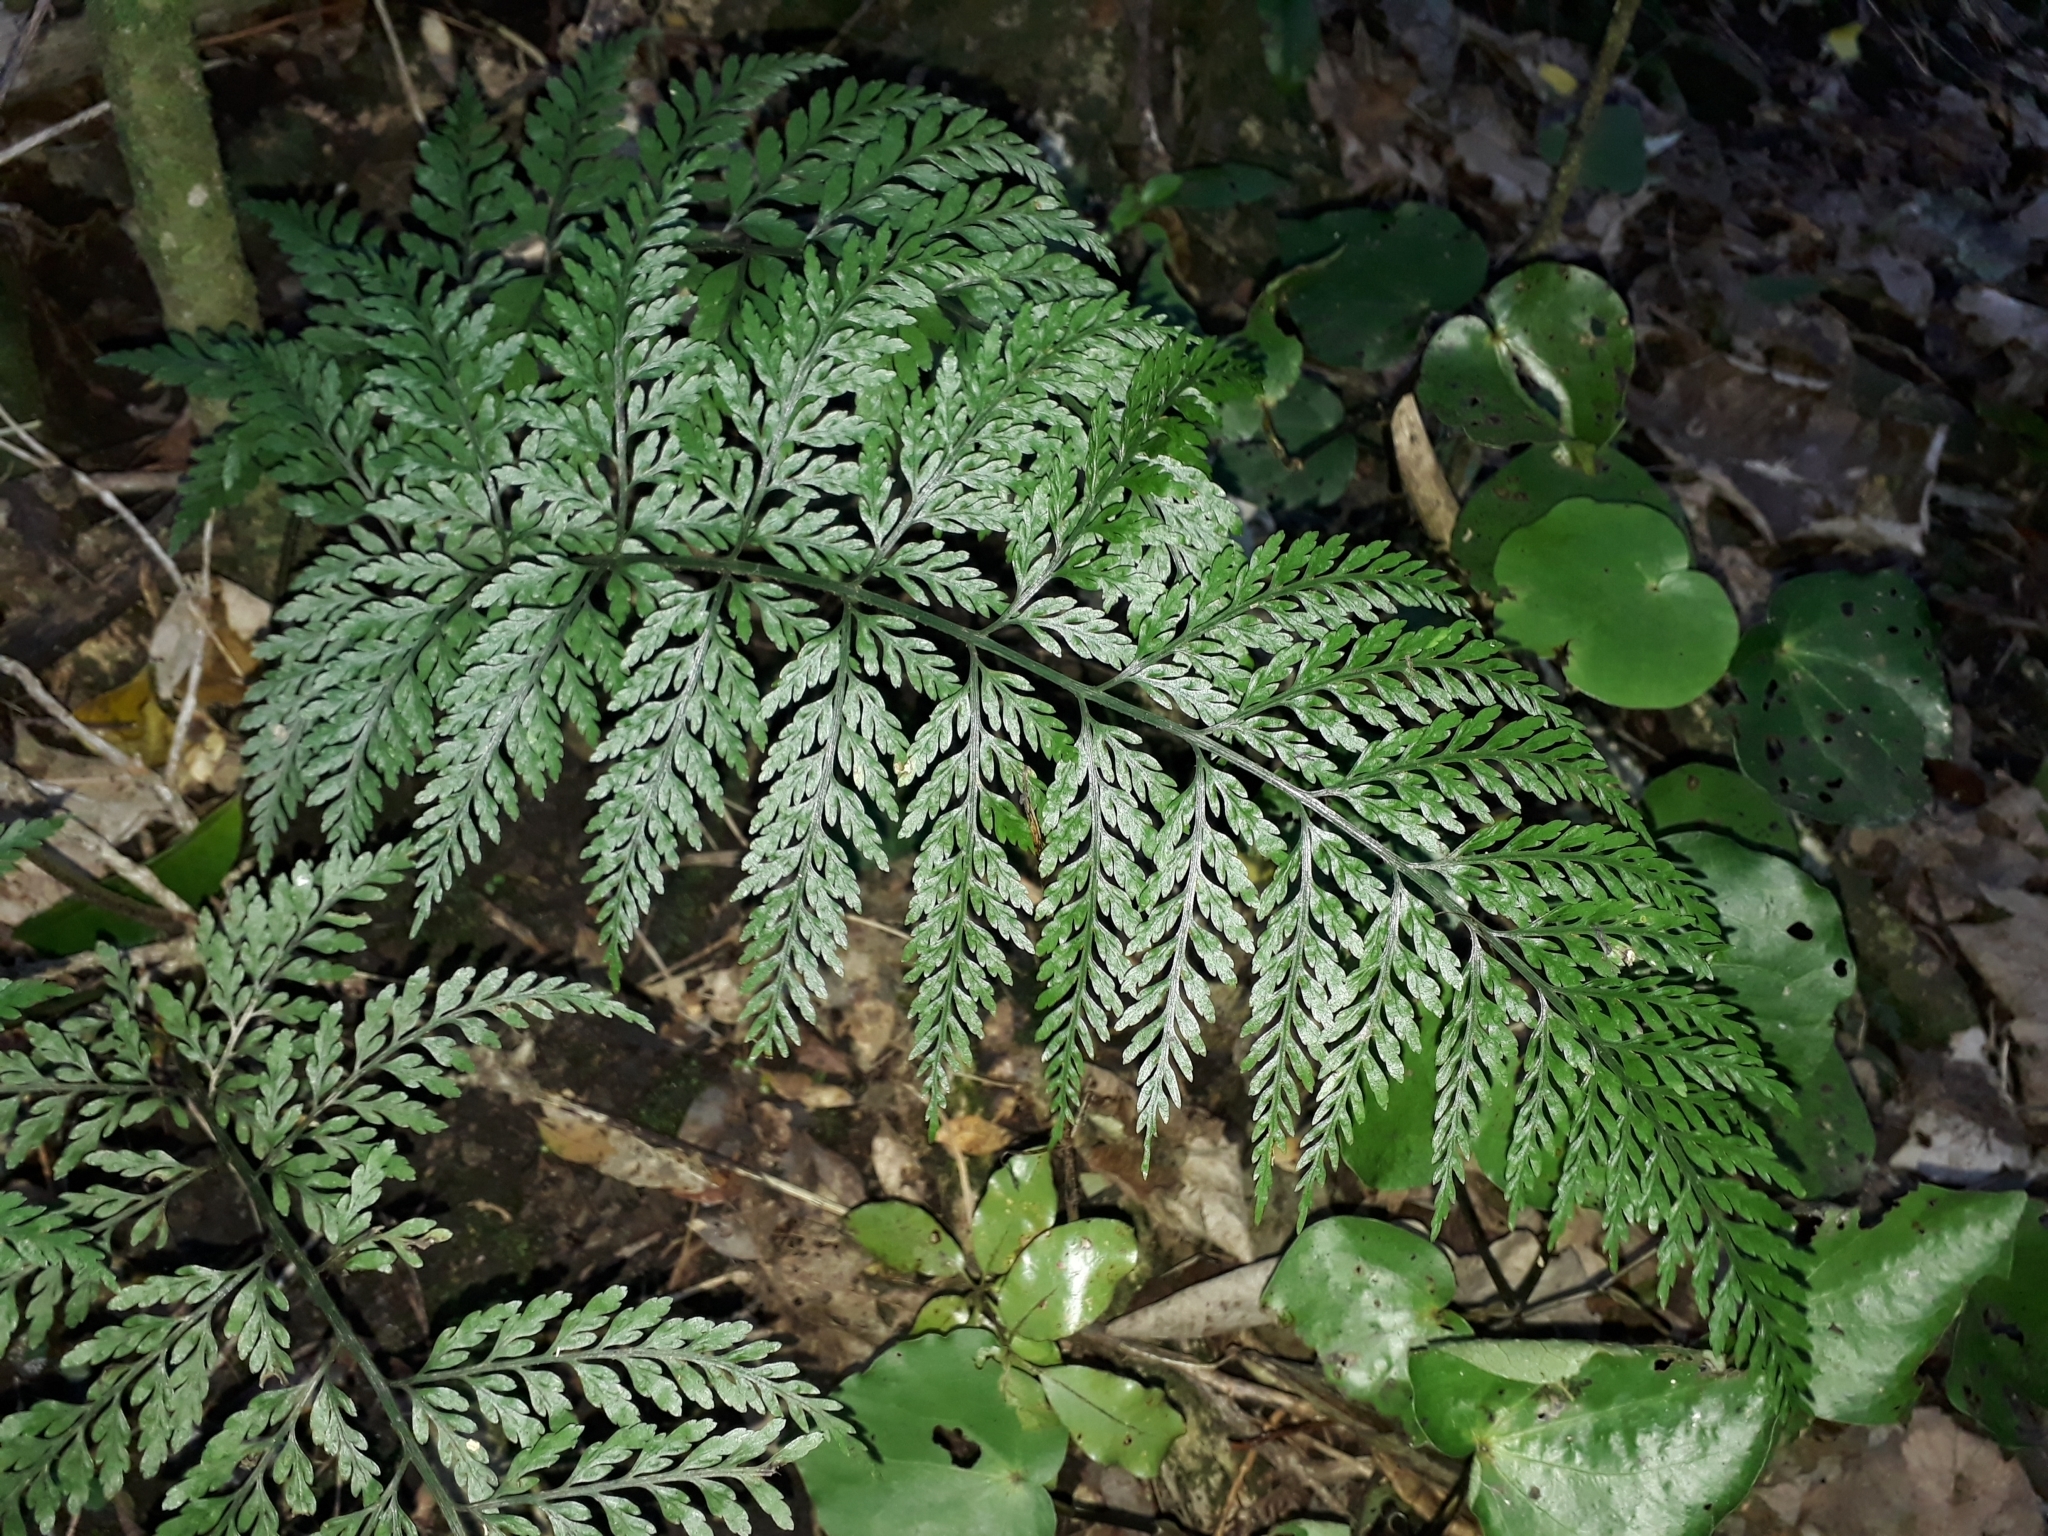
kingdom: Plantae
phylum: Tracheophyta
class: Polypodiopsida
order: Polypodiales
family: Aspleniaceae
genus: Asplenium
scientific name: Asplenium
